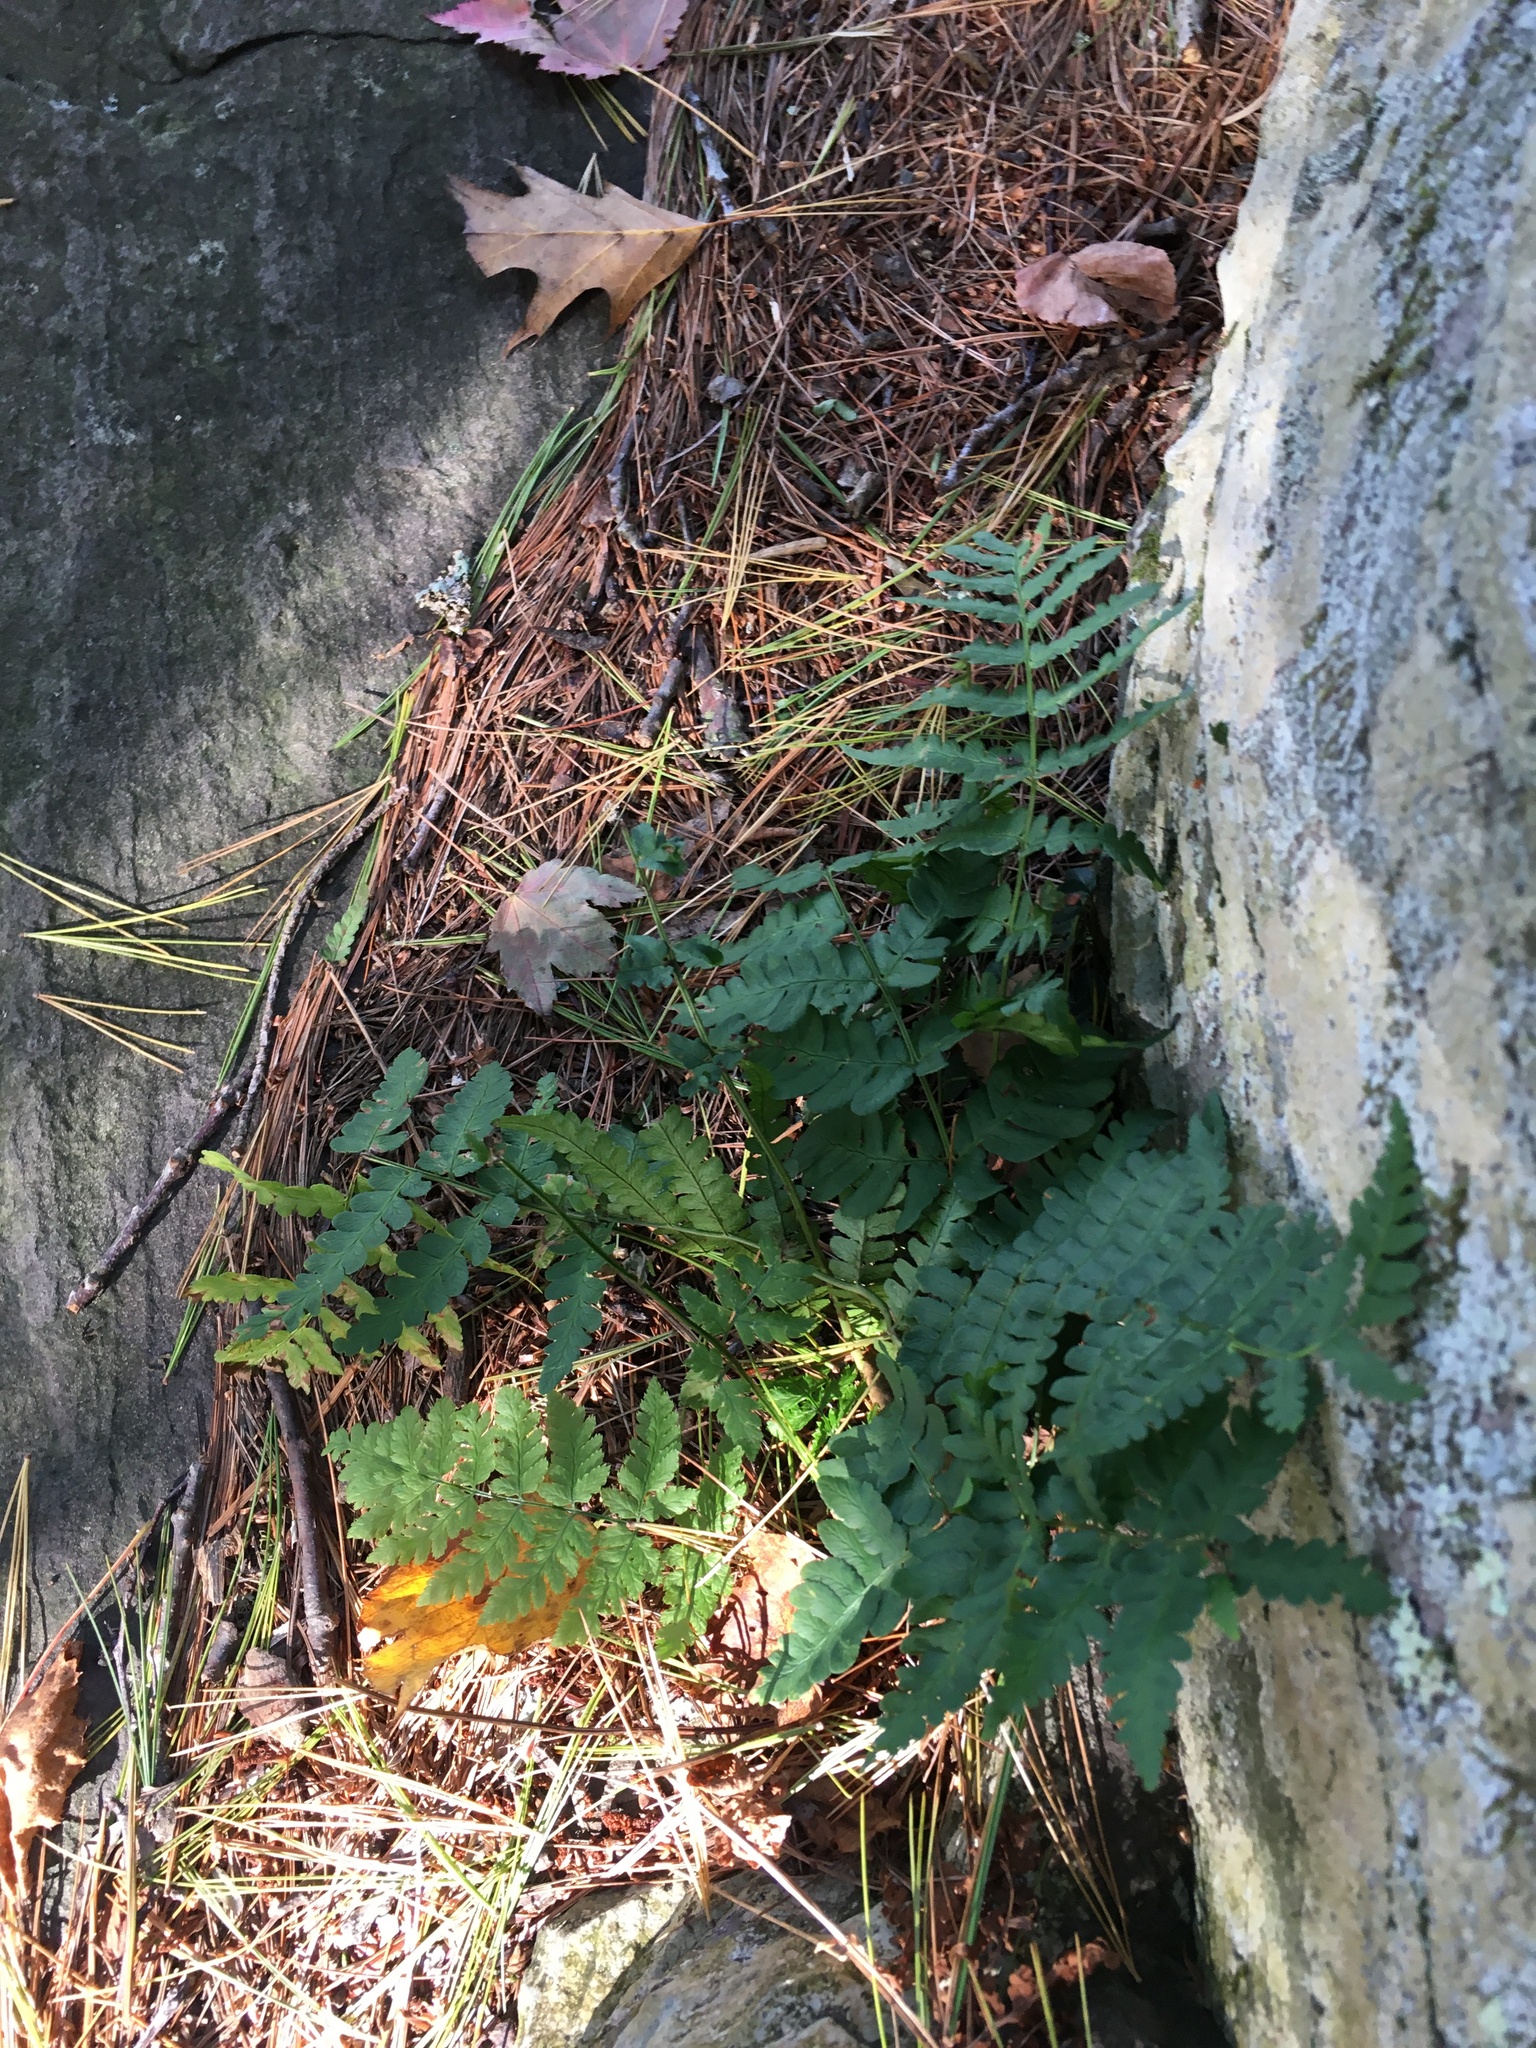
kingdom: Plantae
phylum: Tracheophyta
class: Polypodiopsida
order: Polypodiales
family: Dryopteridaceae
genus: Dryopteris
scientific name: Dryopteris marginalis
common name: Marginal wood fern
